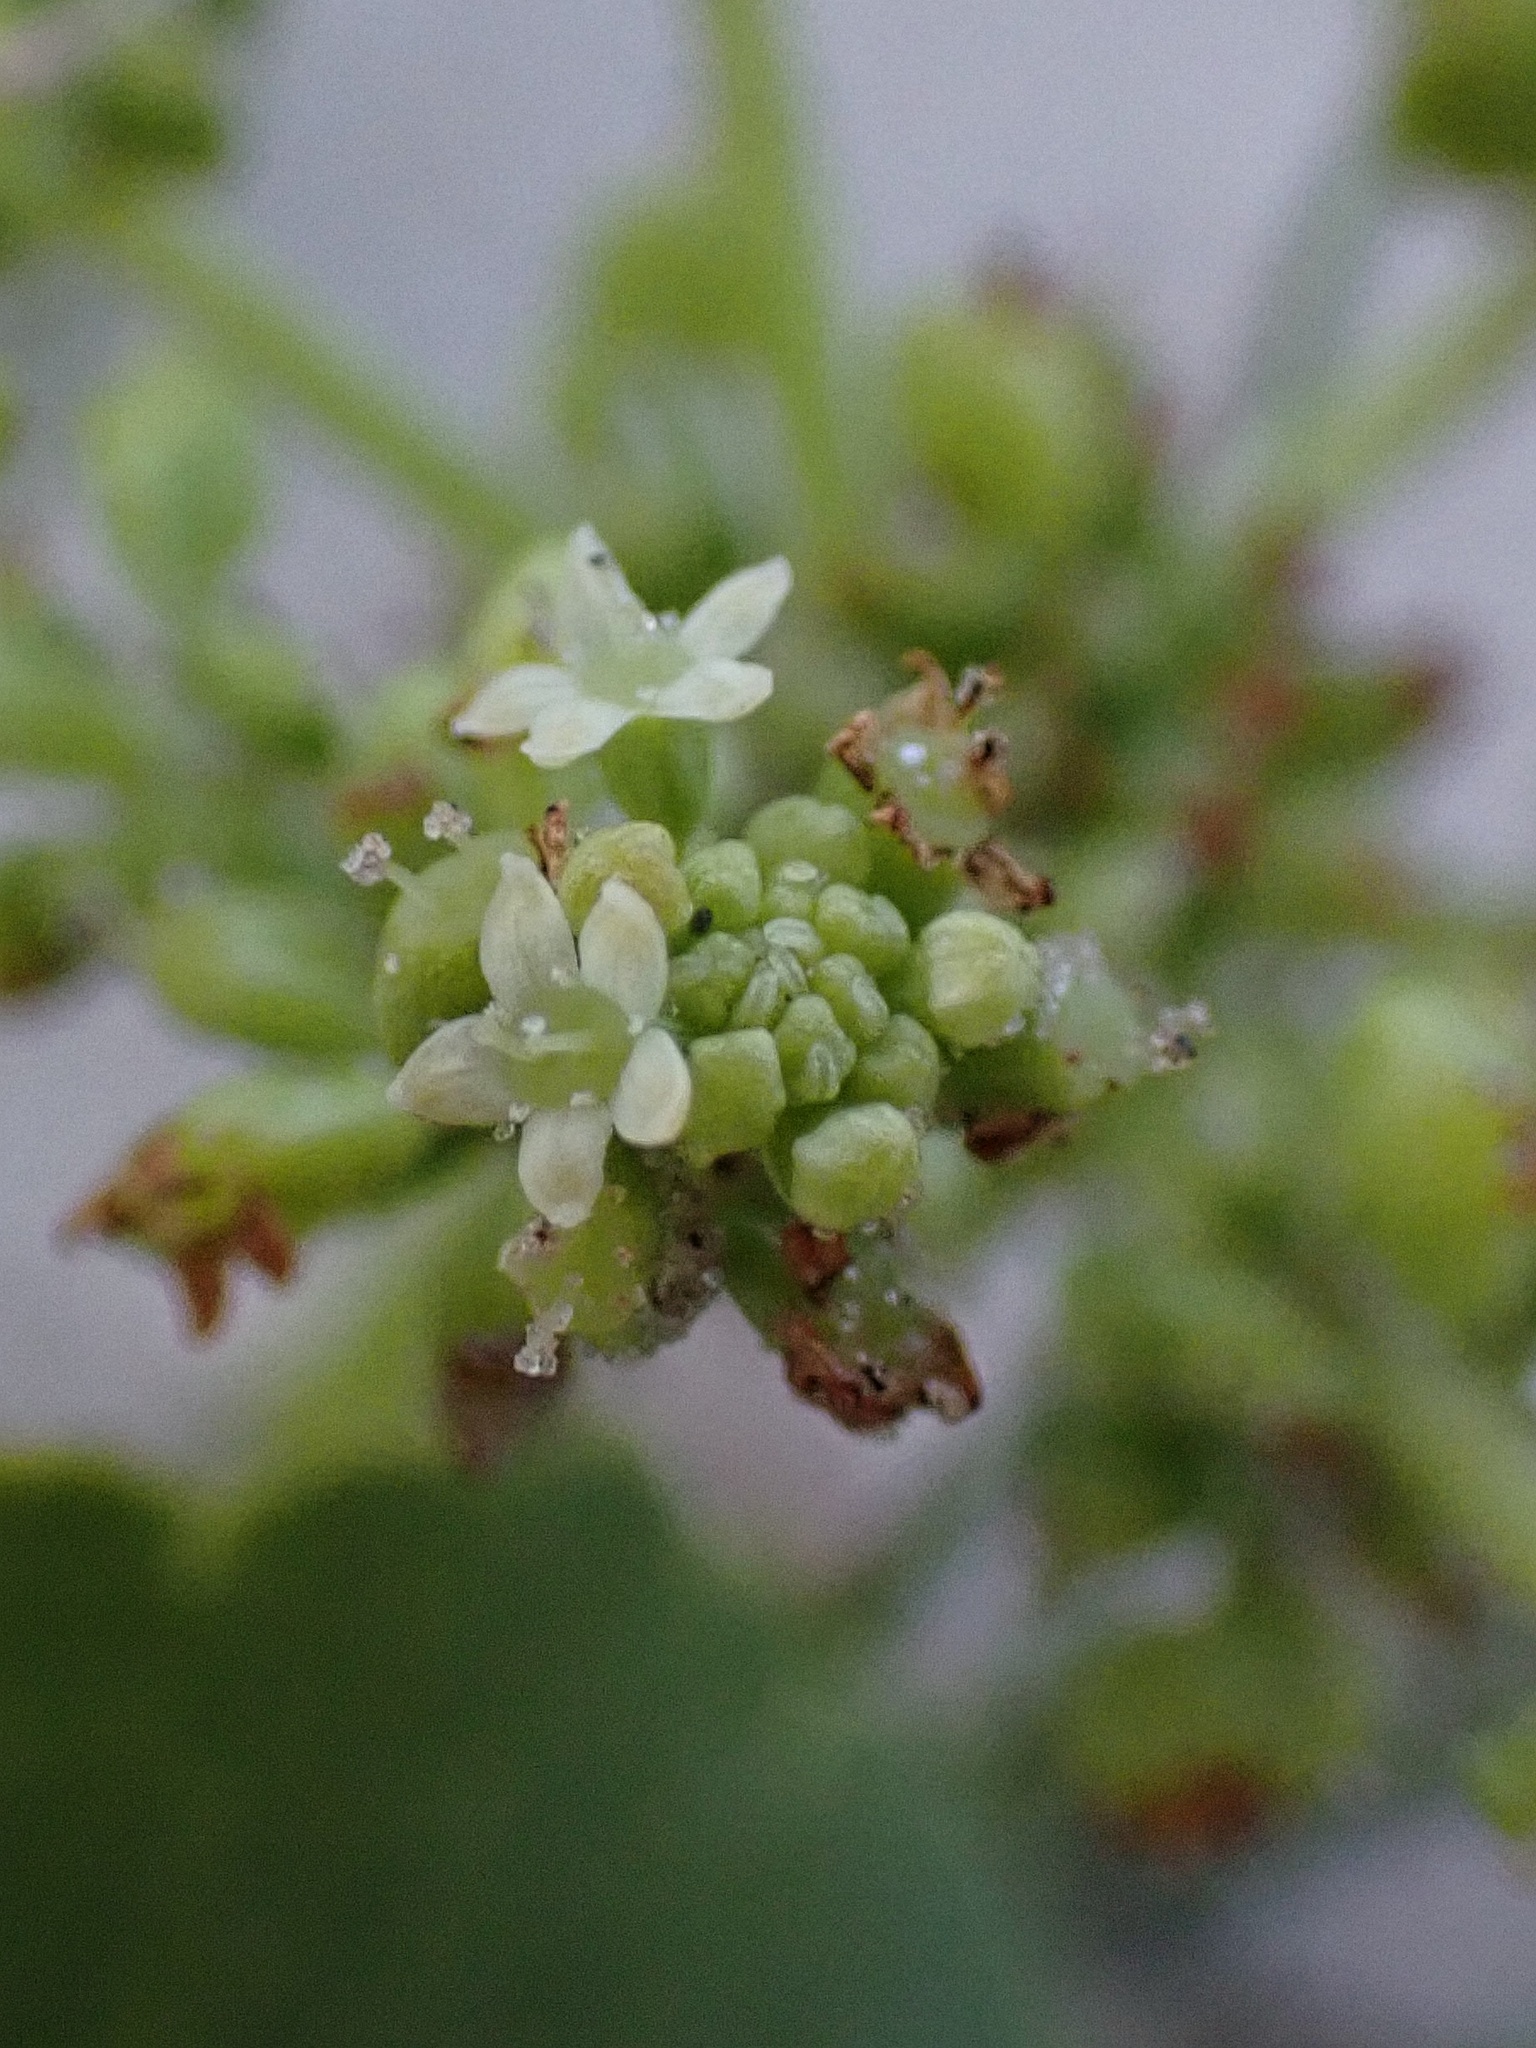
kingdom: Plantae
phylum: Tracheophyta
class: Magnoliopsida
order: Apiales
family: Araliaceae
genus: Hydrocotyle
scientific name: Hydrocotyle bonariensis
